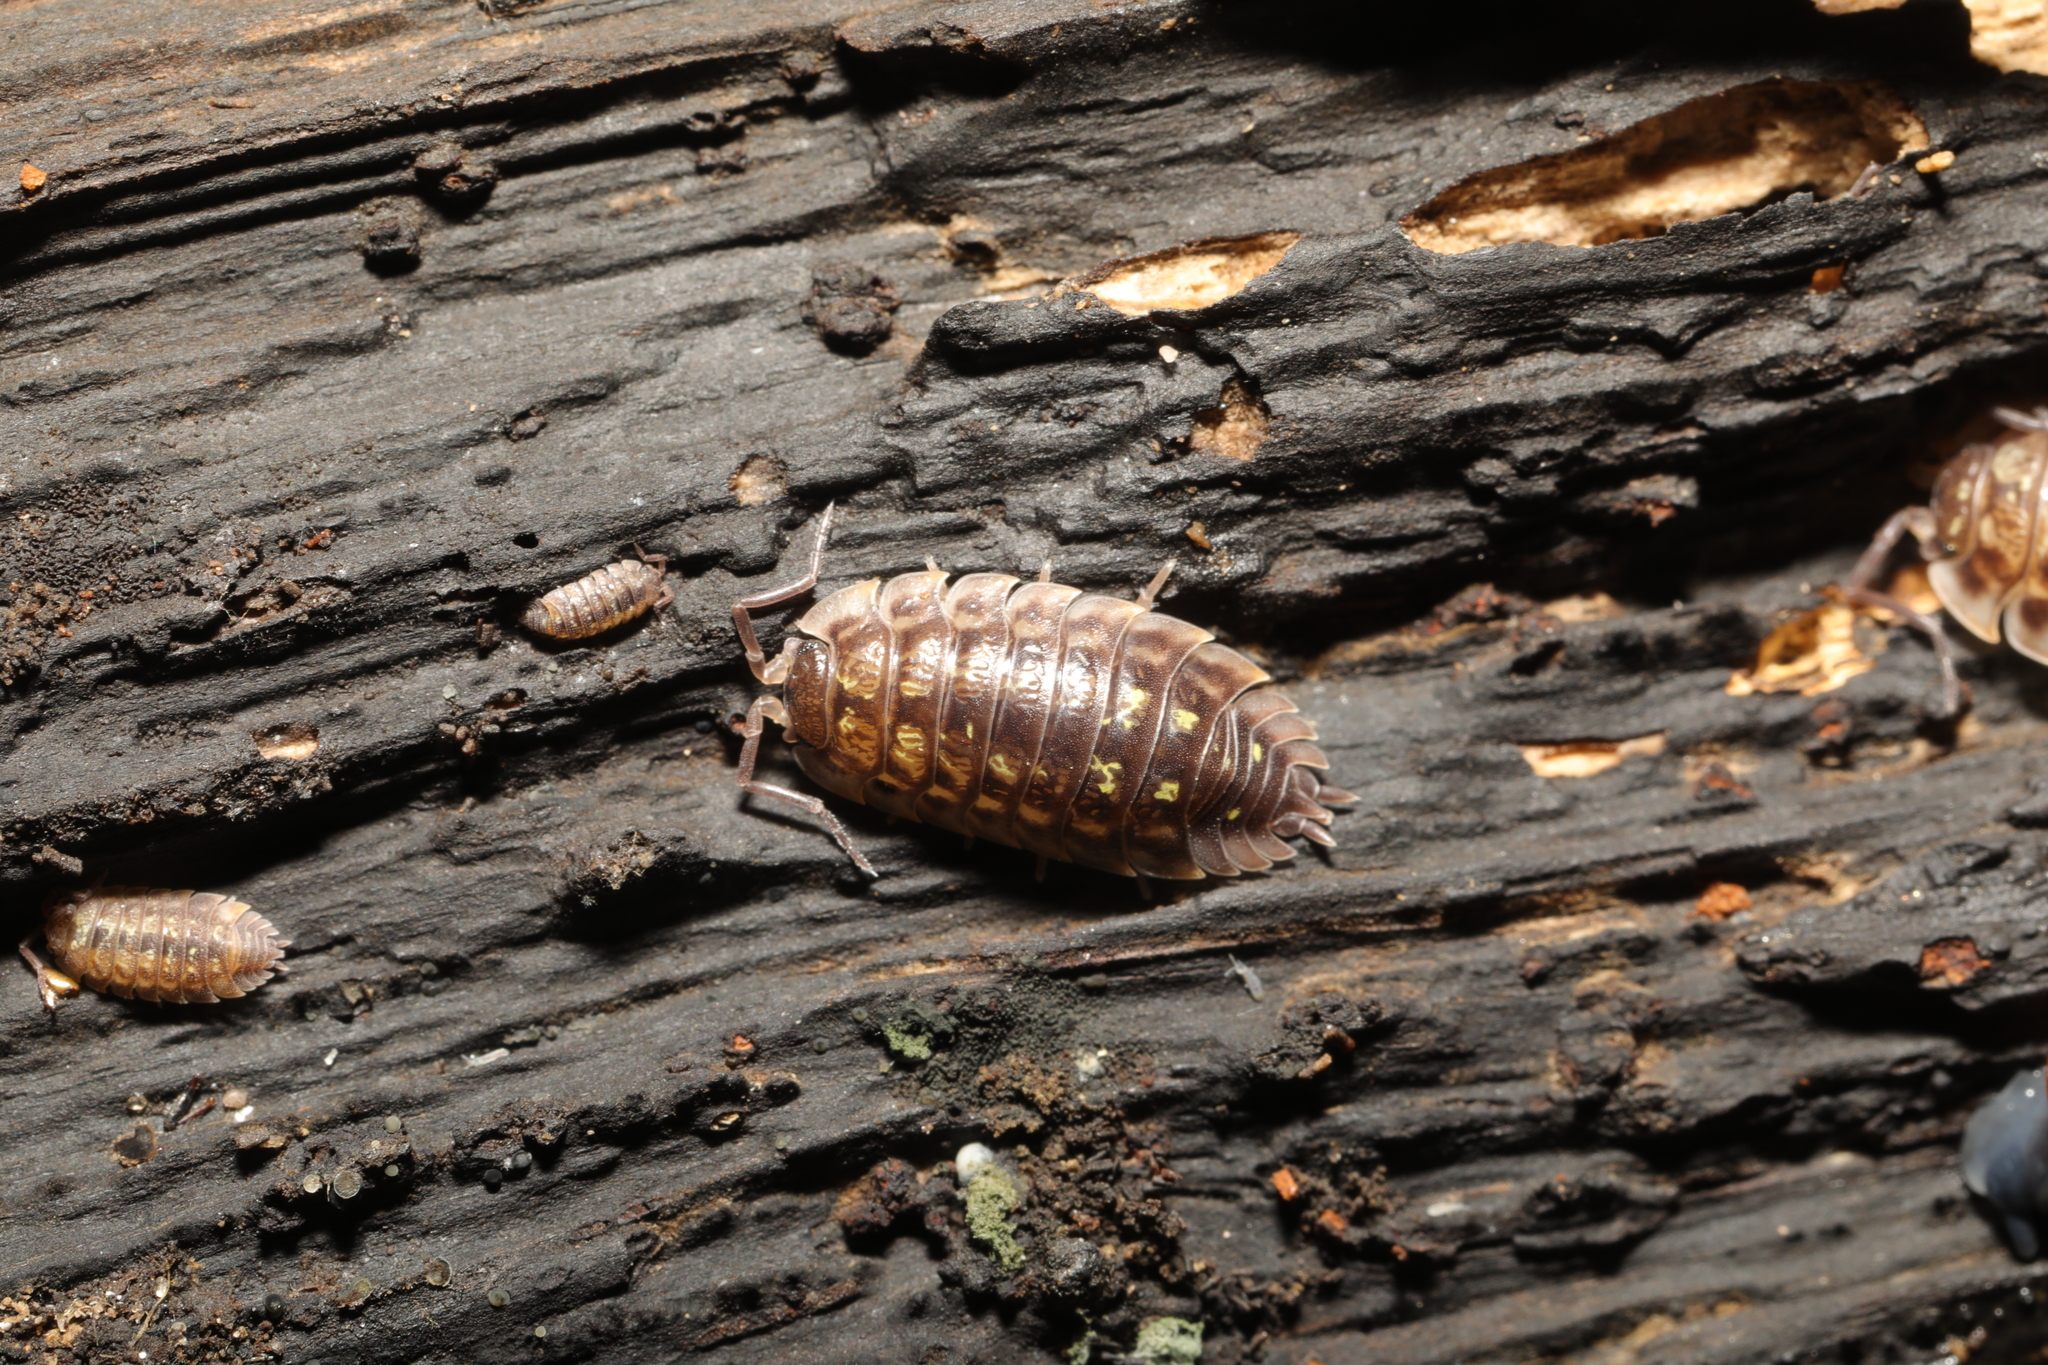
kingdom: Animalia
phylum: Arthropoda
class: Malacostraca
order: Isopoda
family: Oniscidae
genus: Oniscus
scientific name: Oniscus asellus
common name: Common shiny woodlouse
